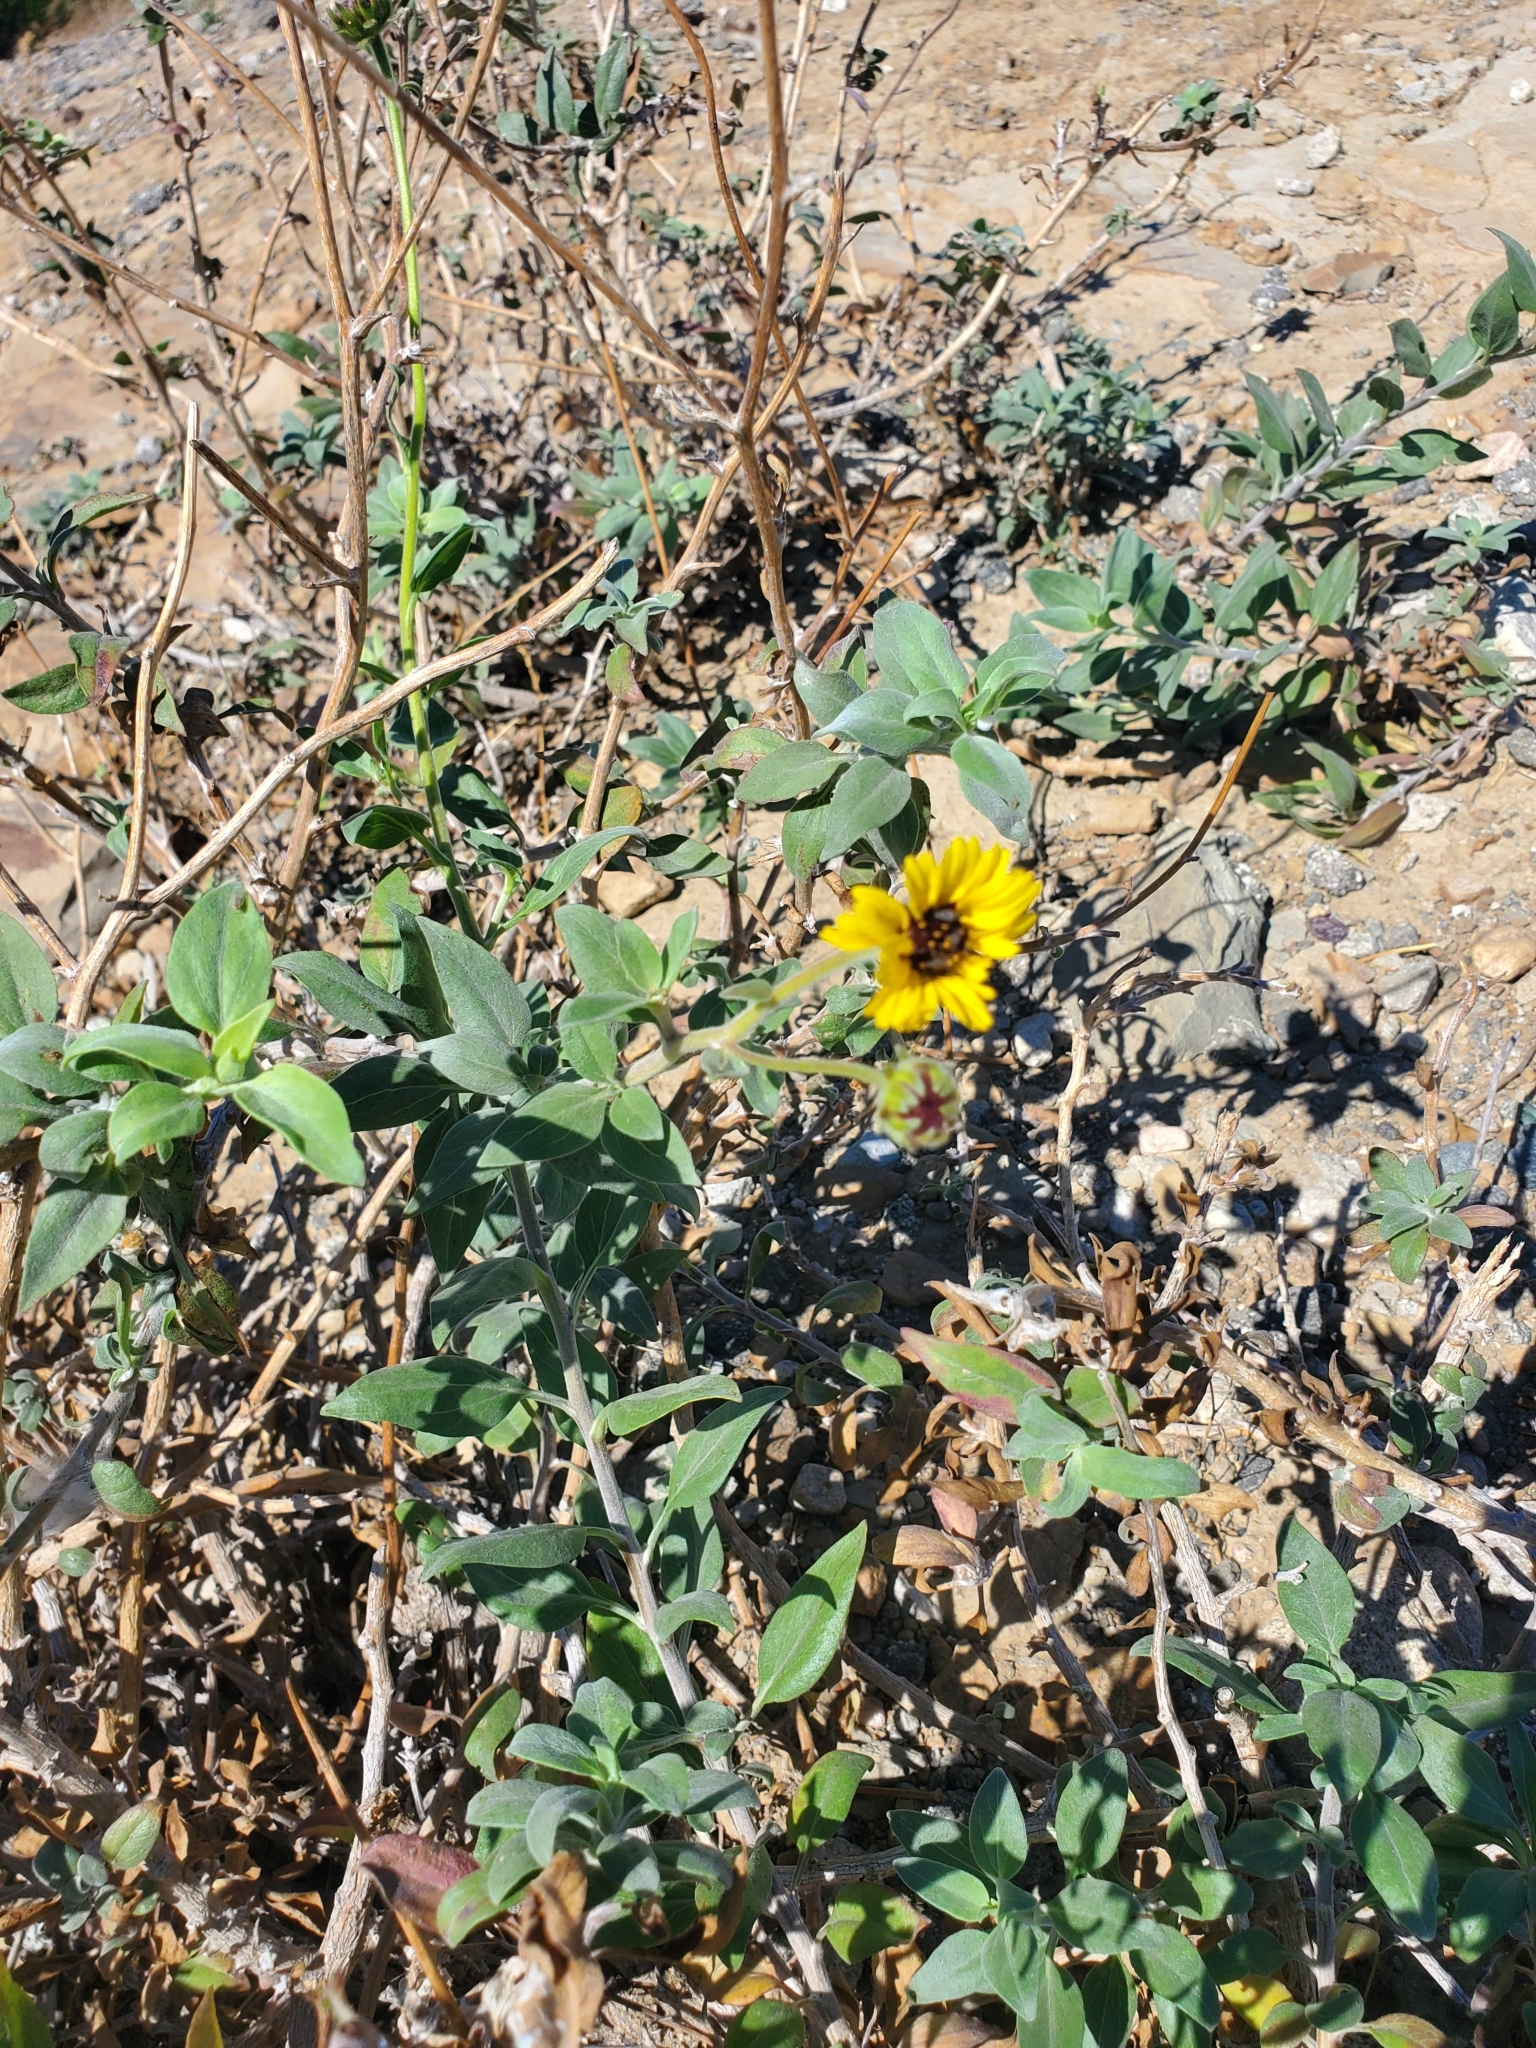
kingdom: Plantae
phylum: Tracheophyta
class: Magnoliopsida
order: Asterales
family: Asteraceae
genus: Encelia
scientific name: Encelia californica
